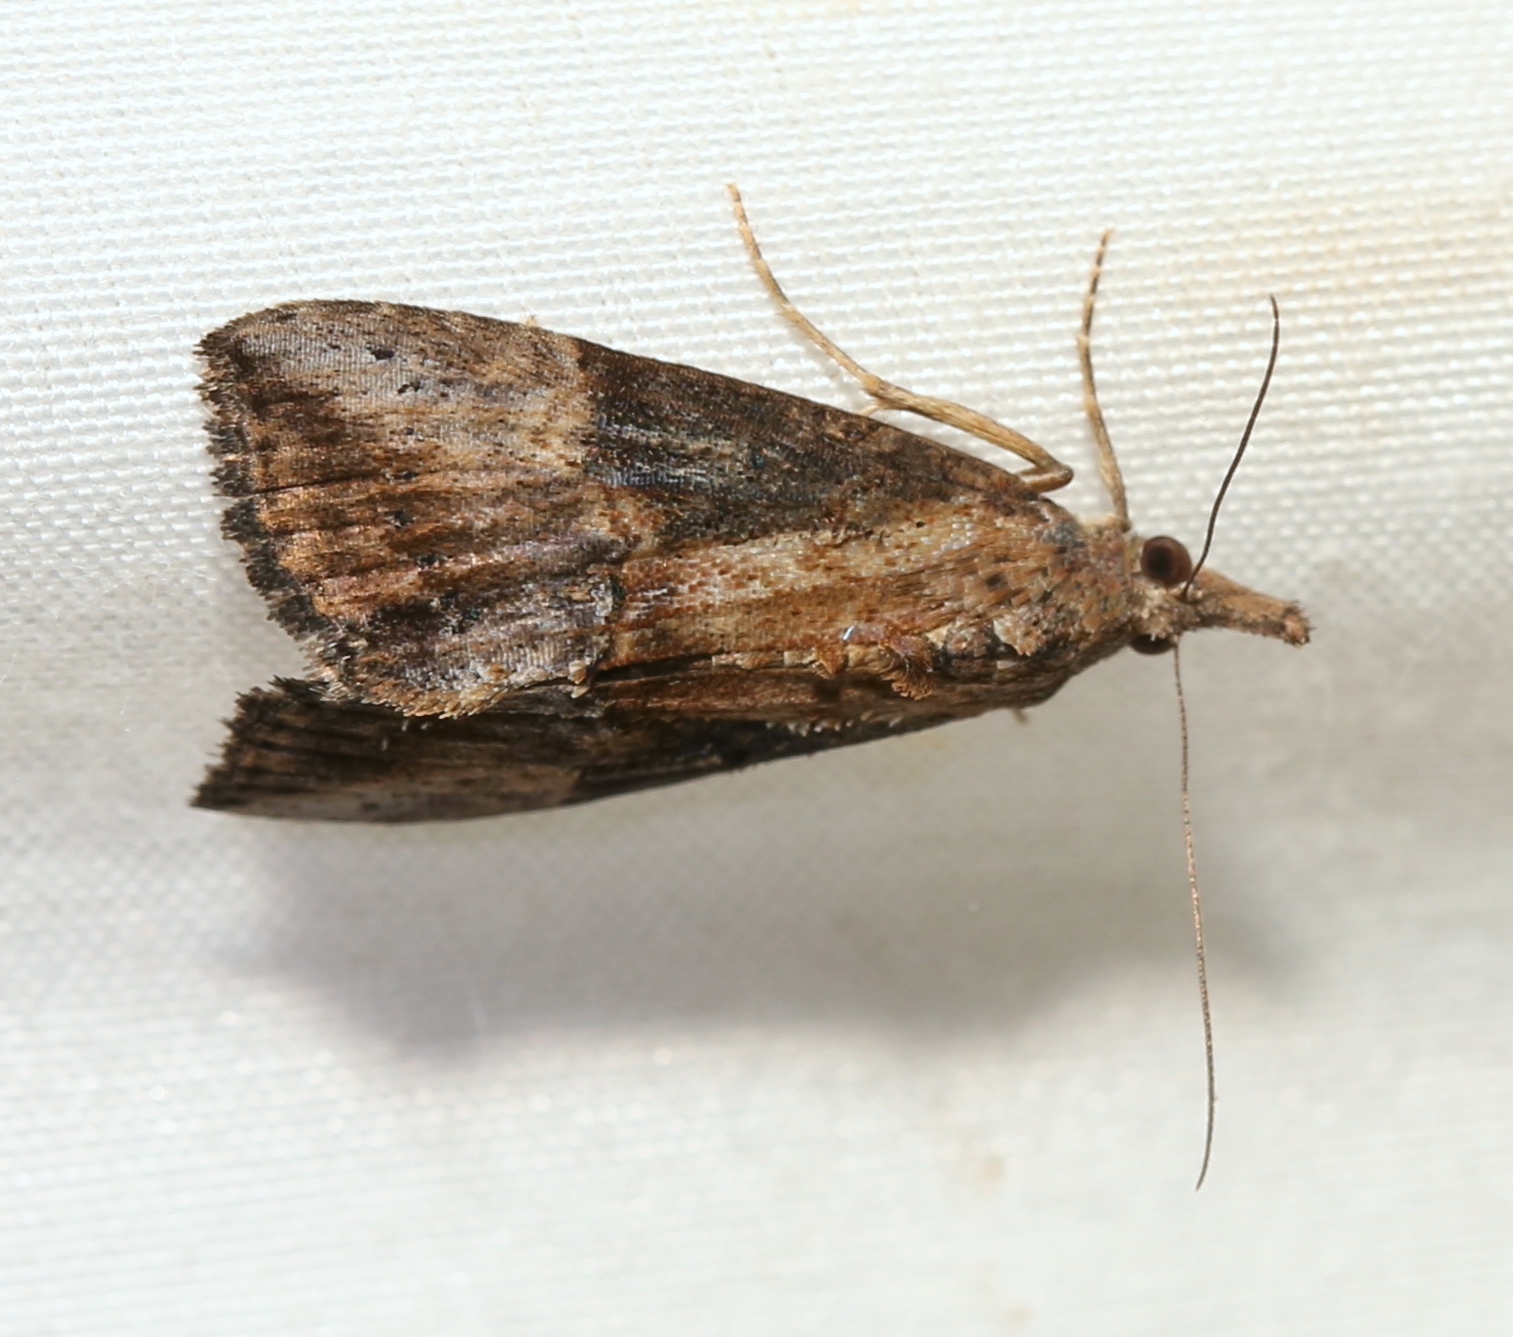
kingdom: Animalia
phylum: Arthropoda
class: Insecta
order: Lepidoptera
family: Erebidae
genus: Hypena
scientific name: Hypena scabra
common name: Green cloverworm
